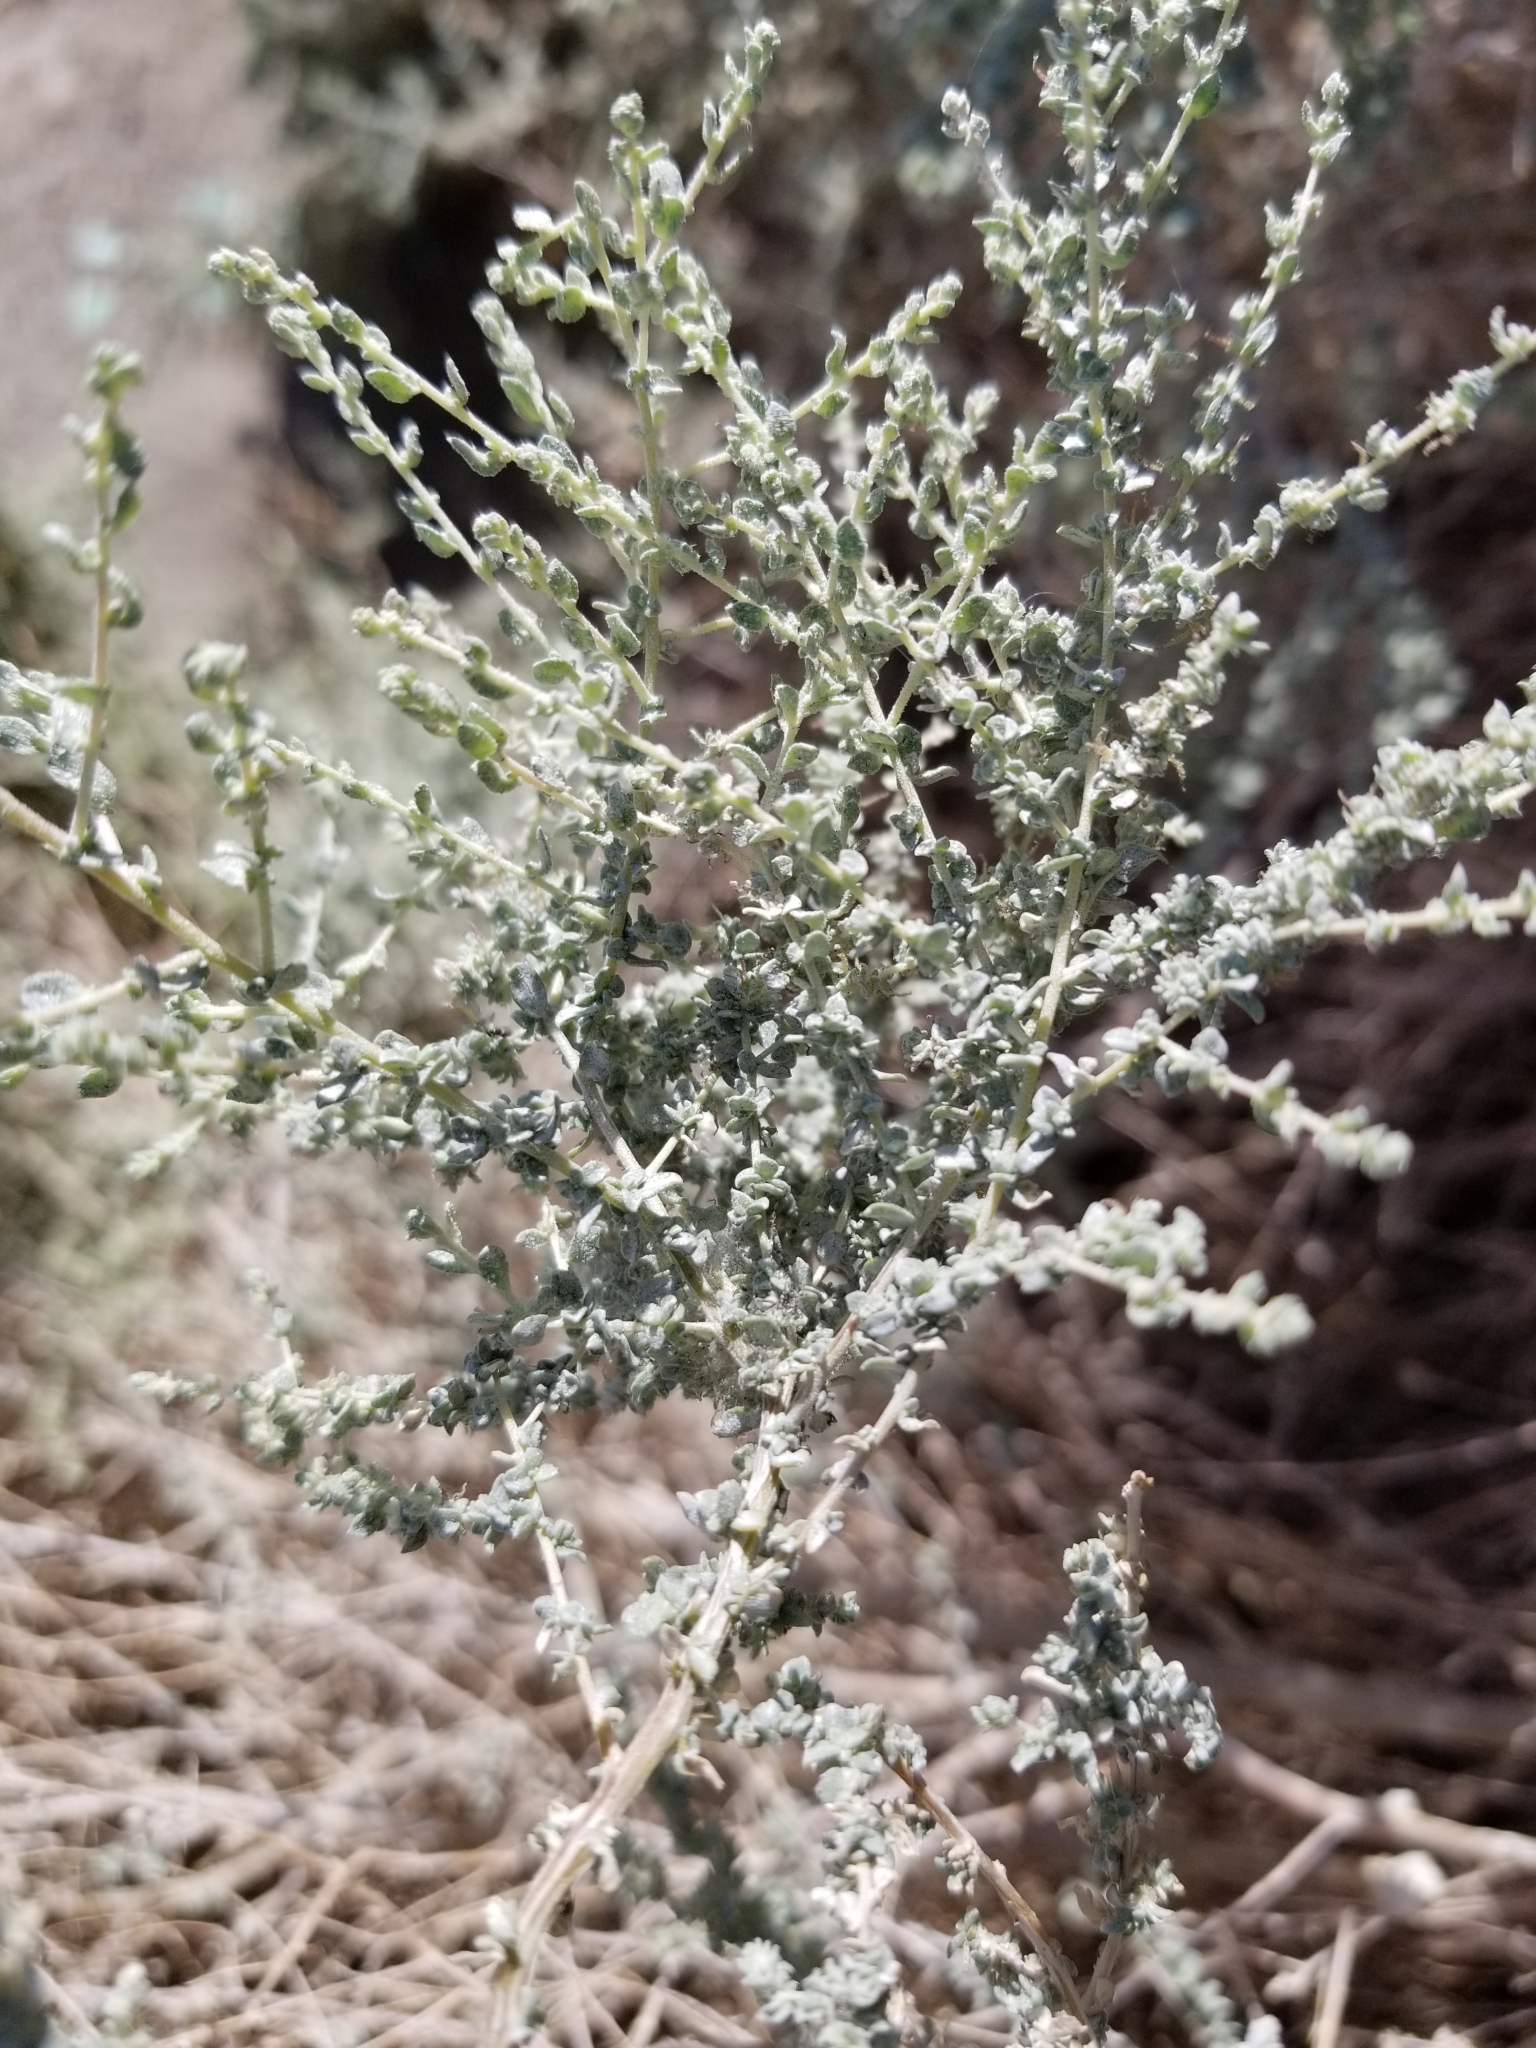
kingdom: Plantae
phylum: Tracheophyta
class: Magnoliopsida
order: Caryophyllales
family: Amaranthaceae
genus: Atriplex
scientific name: Atriplex polycarpa
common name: Desert saltbush
